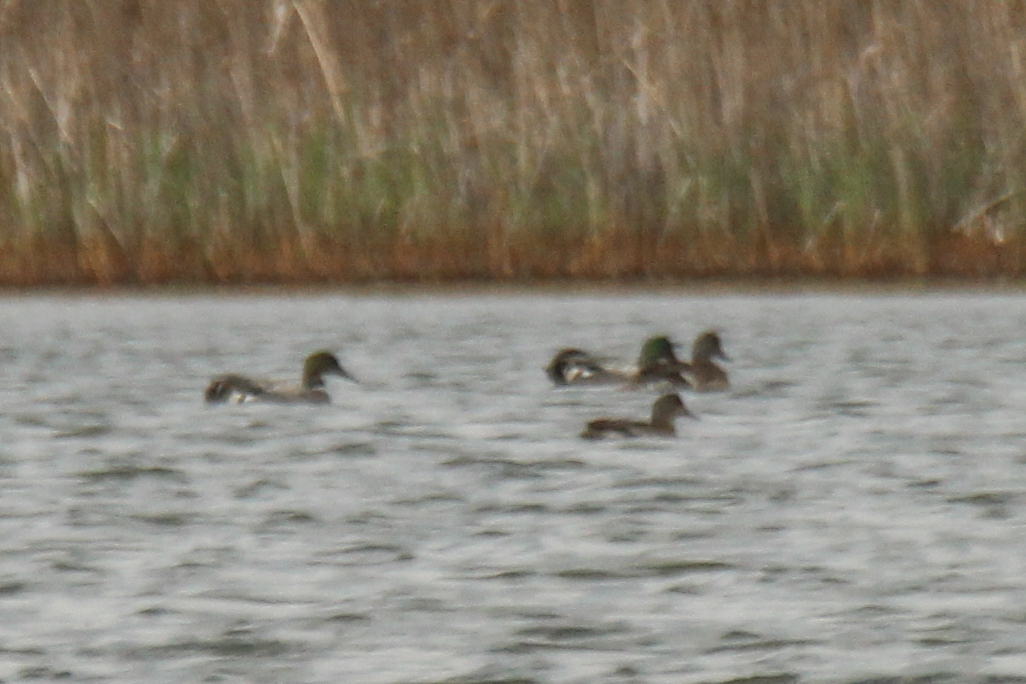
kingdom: Animalia
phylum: Chordata
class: Aves
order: Anseriformes
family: Anatidae
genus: Mareca
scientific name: Mareca falcata
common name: Falcated duck
